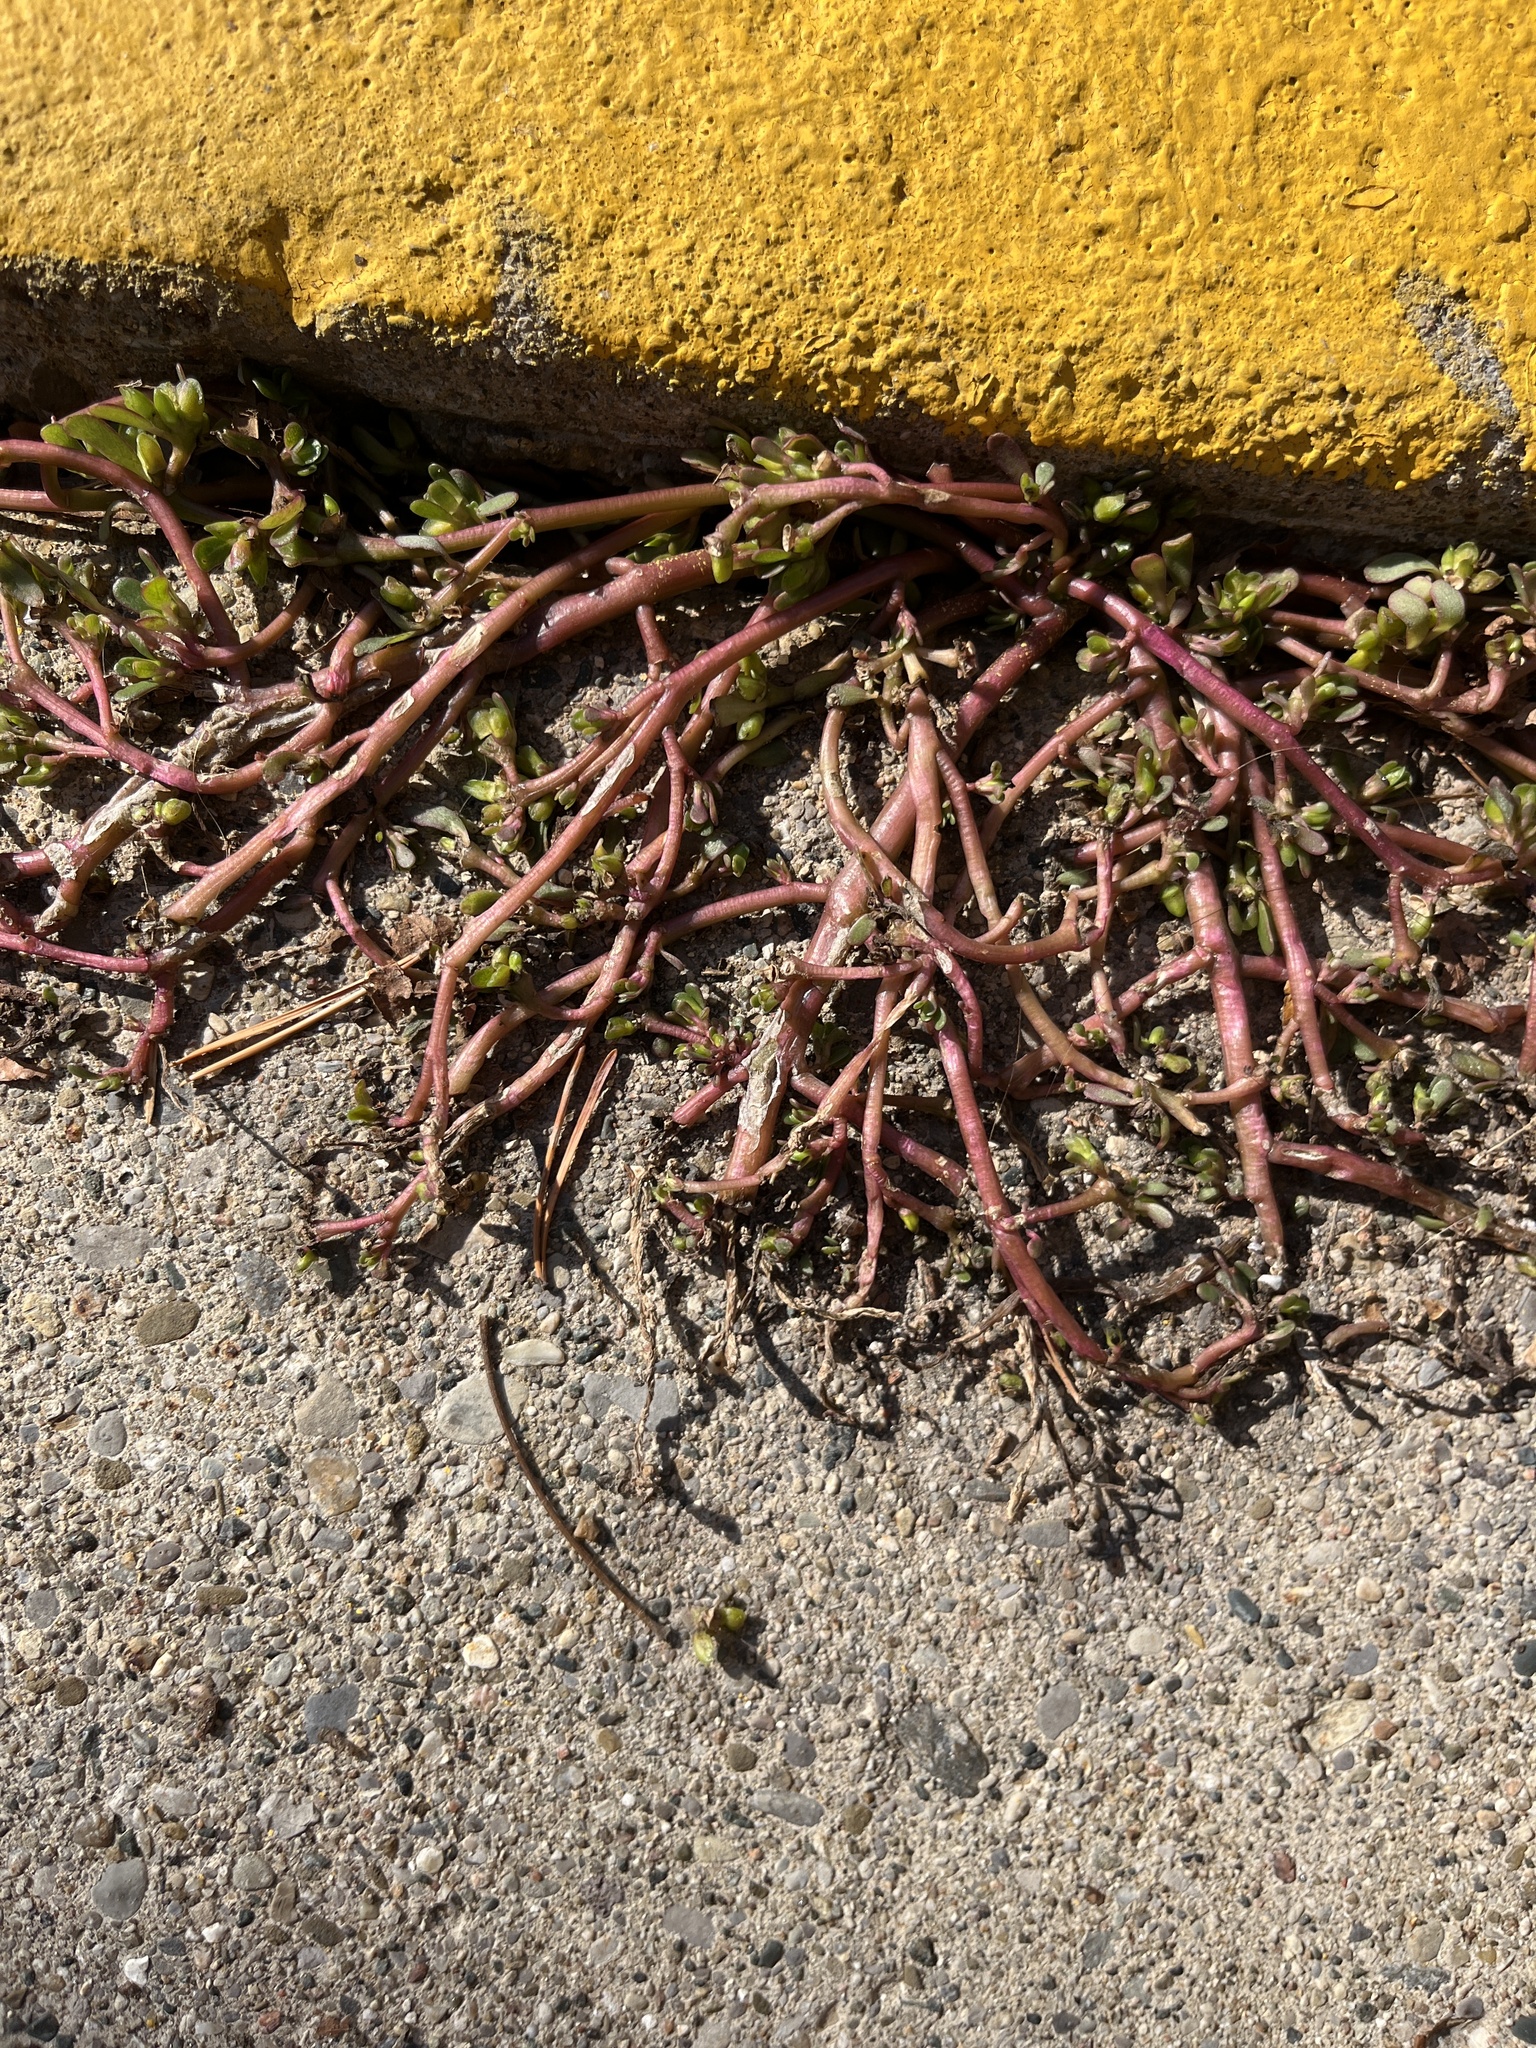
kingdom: Plantae
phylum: Tracheophyta
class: Magnoliopsida
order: Caryophyllales
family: Portulacaceae
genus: Portulaca
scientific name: Portulaca oleracea
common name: Common purslane
